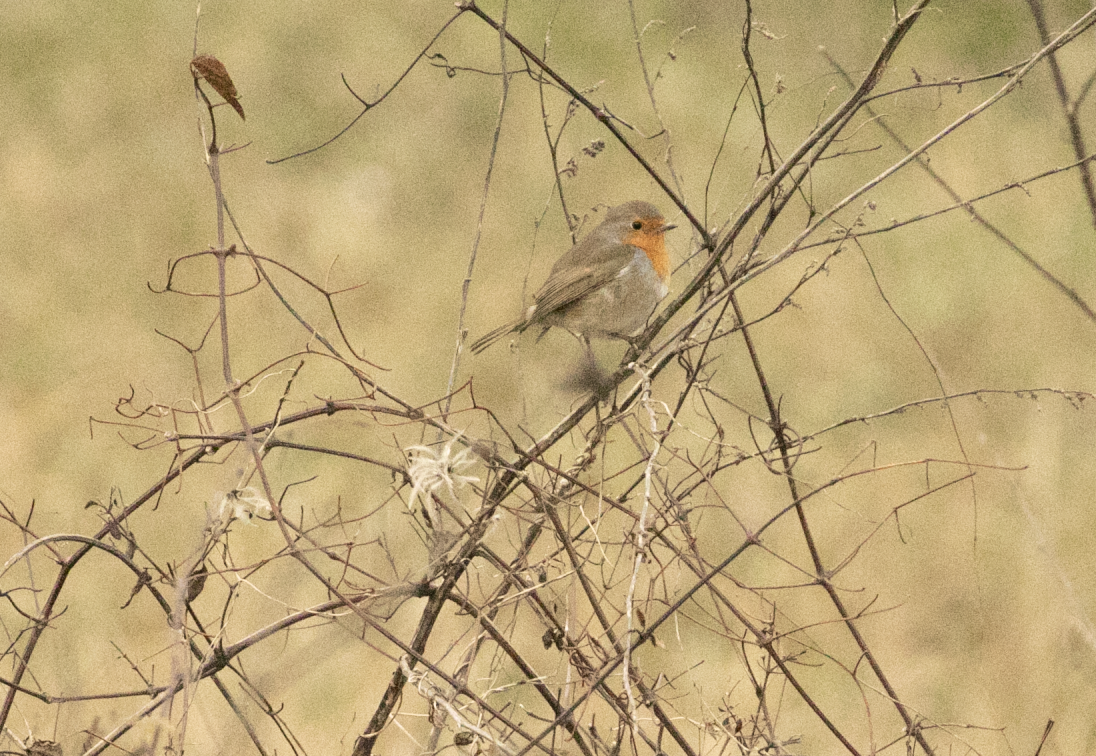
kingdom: Animalia
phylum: Chordata
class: Aves
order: Passeriformes
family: Muscicapidae
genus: Erithacus
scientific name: Erithacus rubecula
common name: European robin
